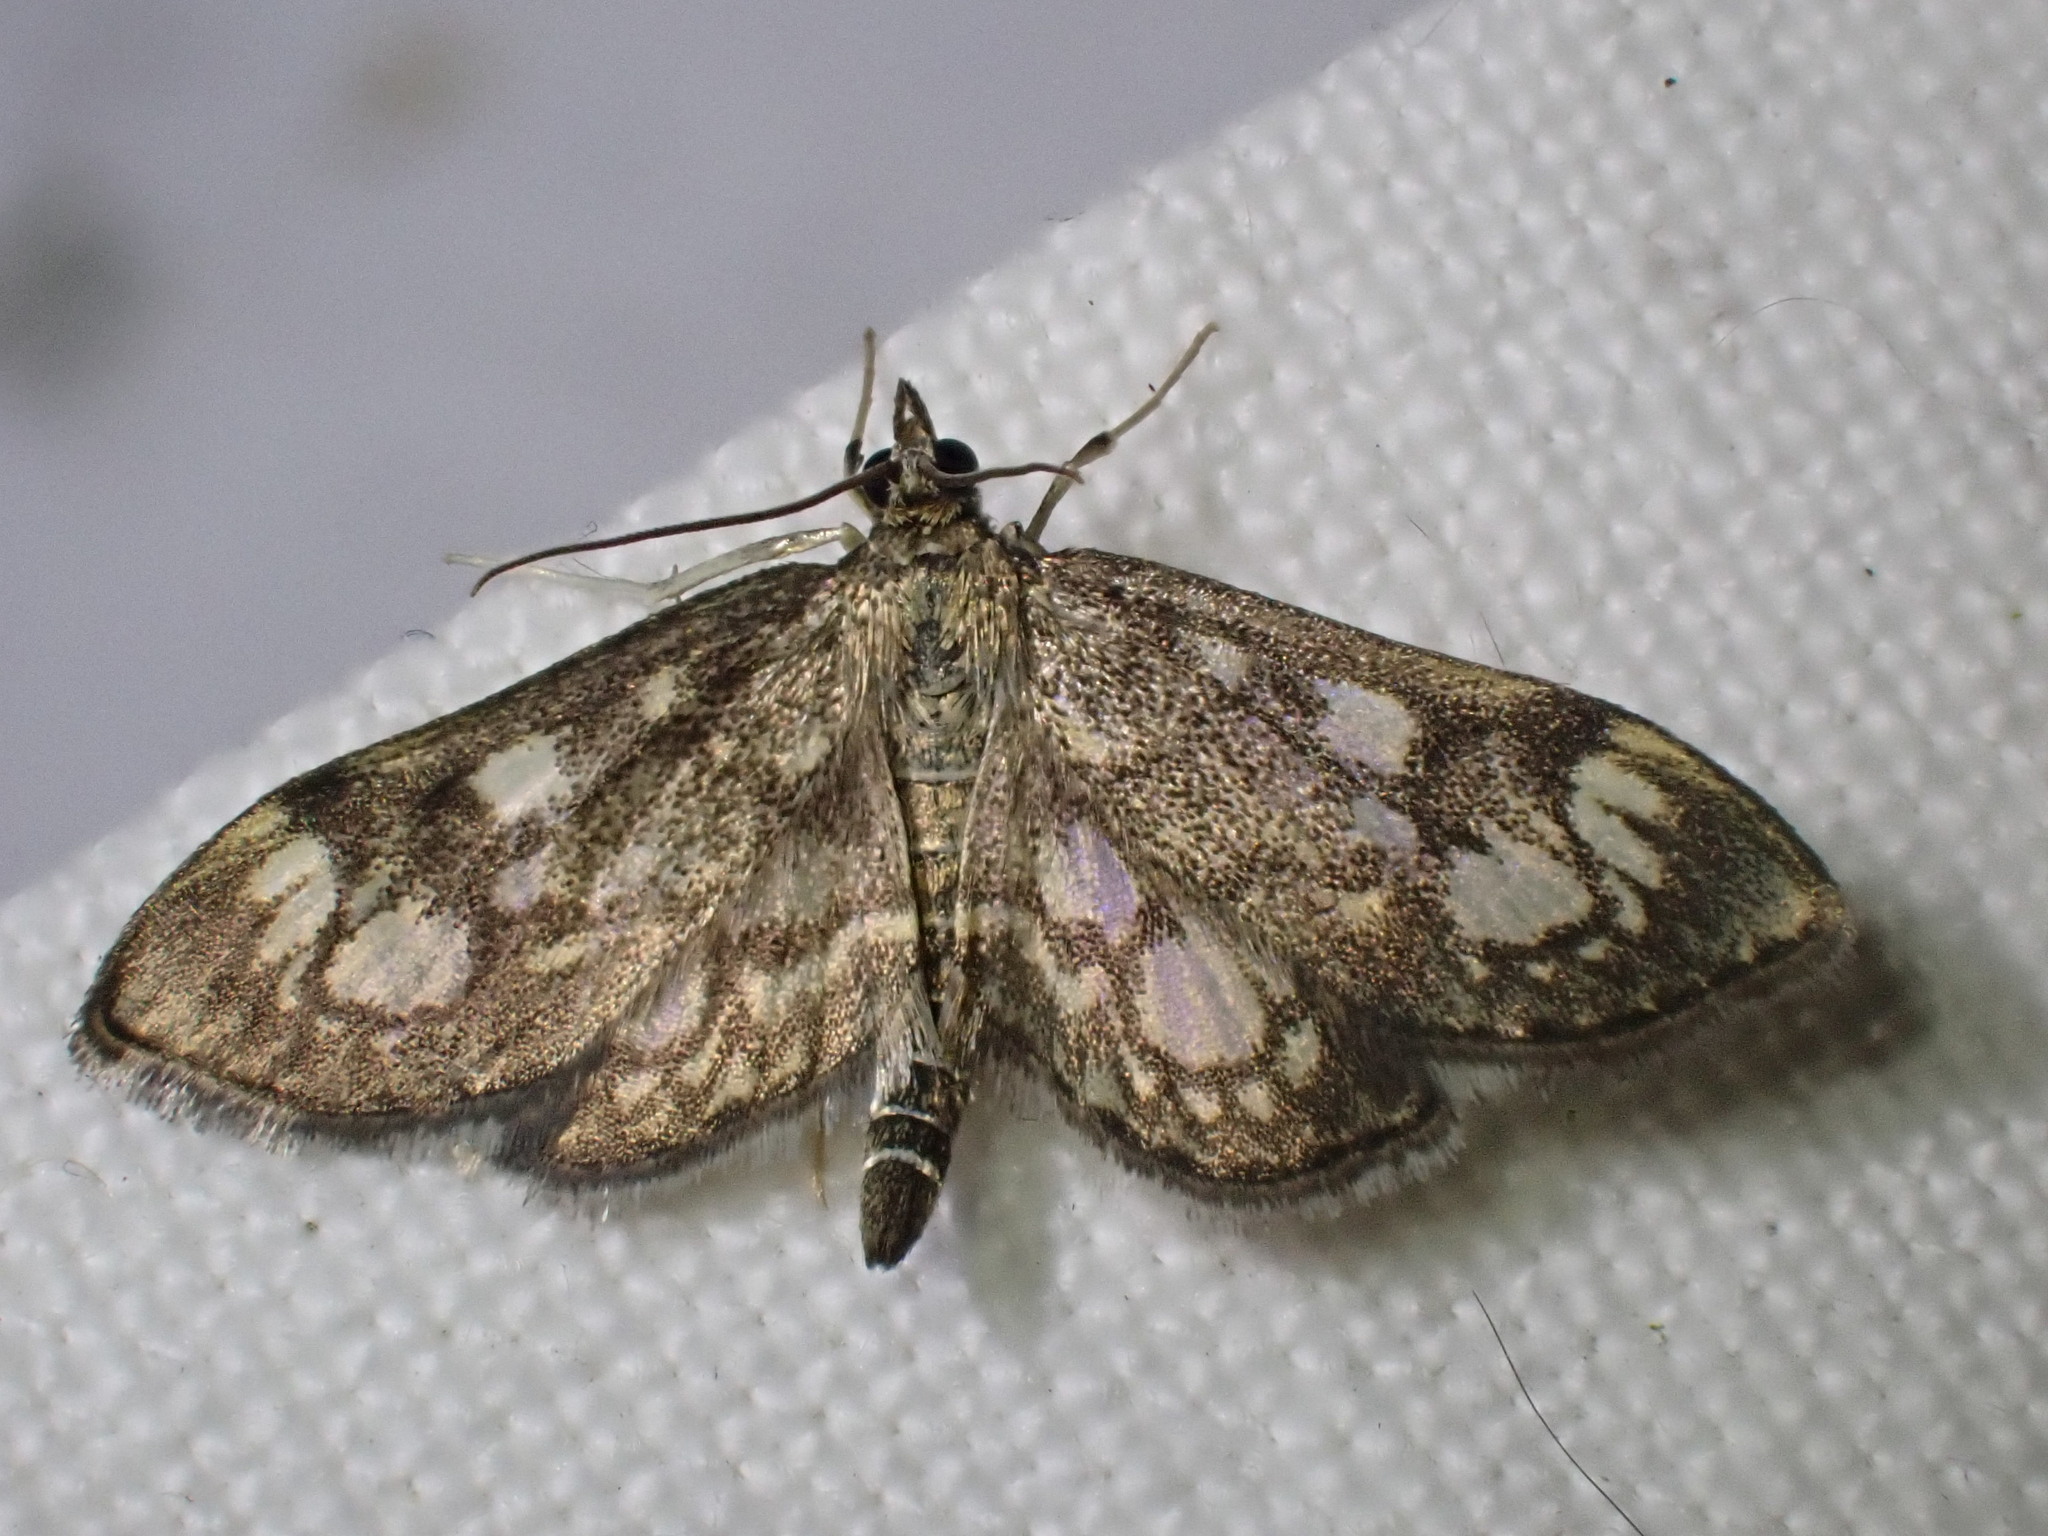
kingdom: Animalia
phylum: Arthropoda
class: Insecta
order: Lepidoptera
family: Crambidae
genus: Anania
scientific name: Anania coronata
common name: Elder pearl
